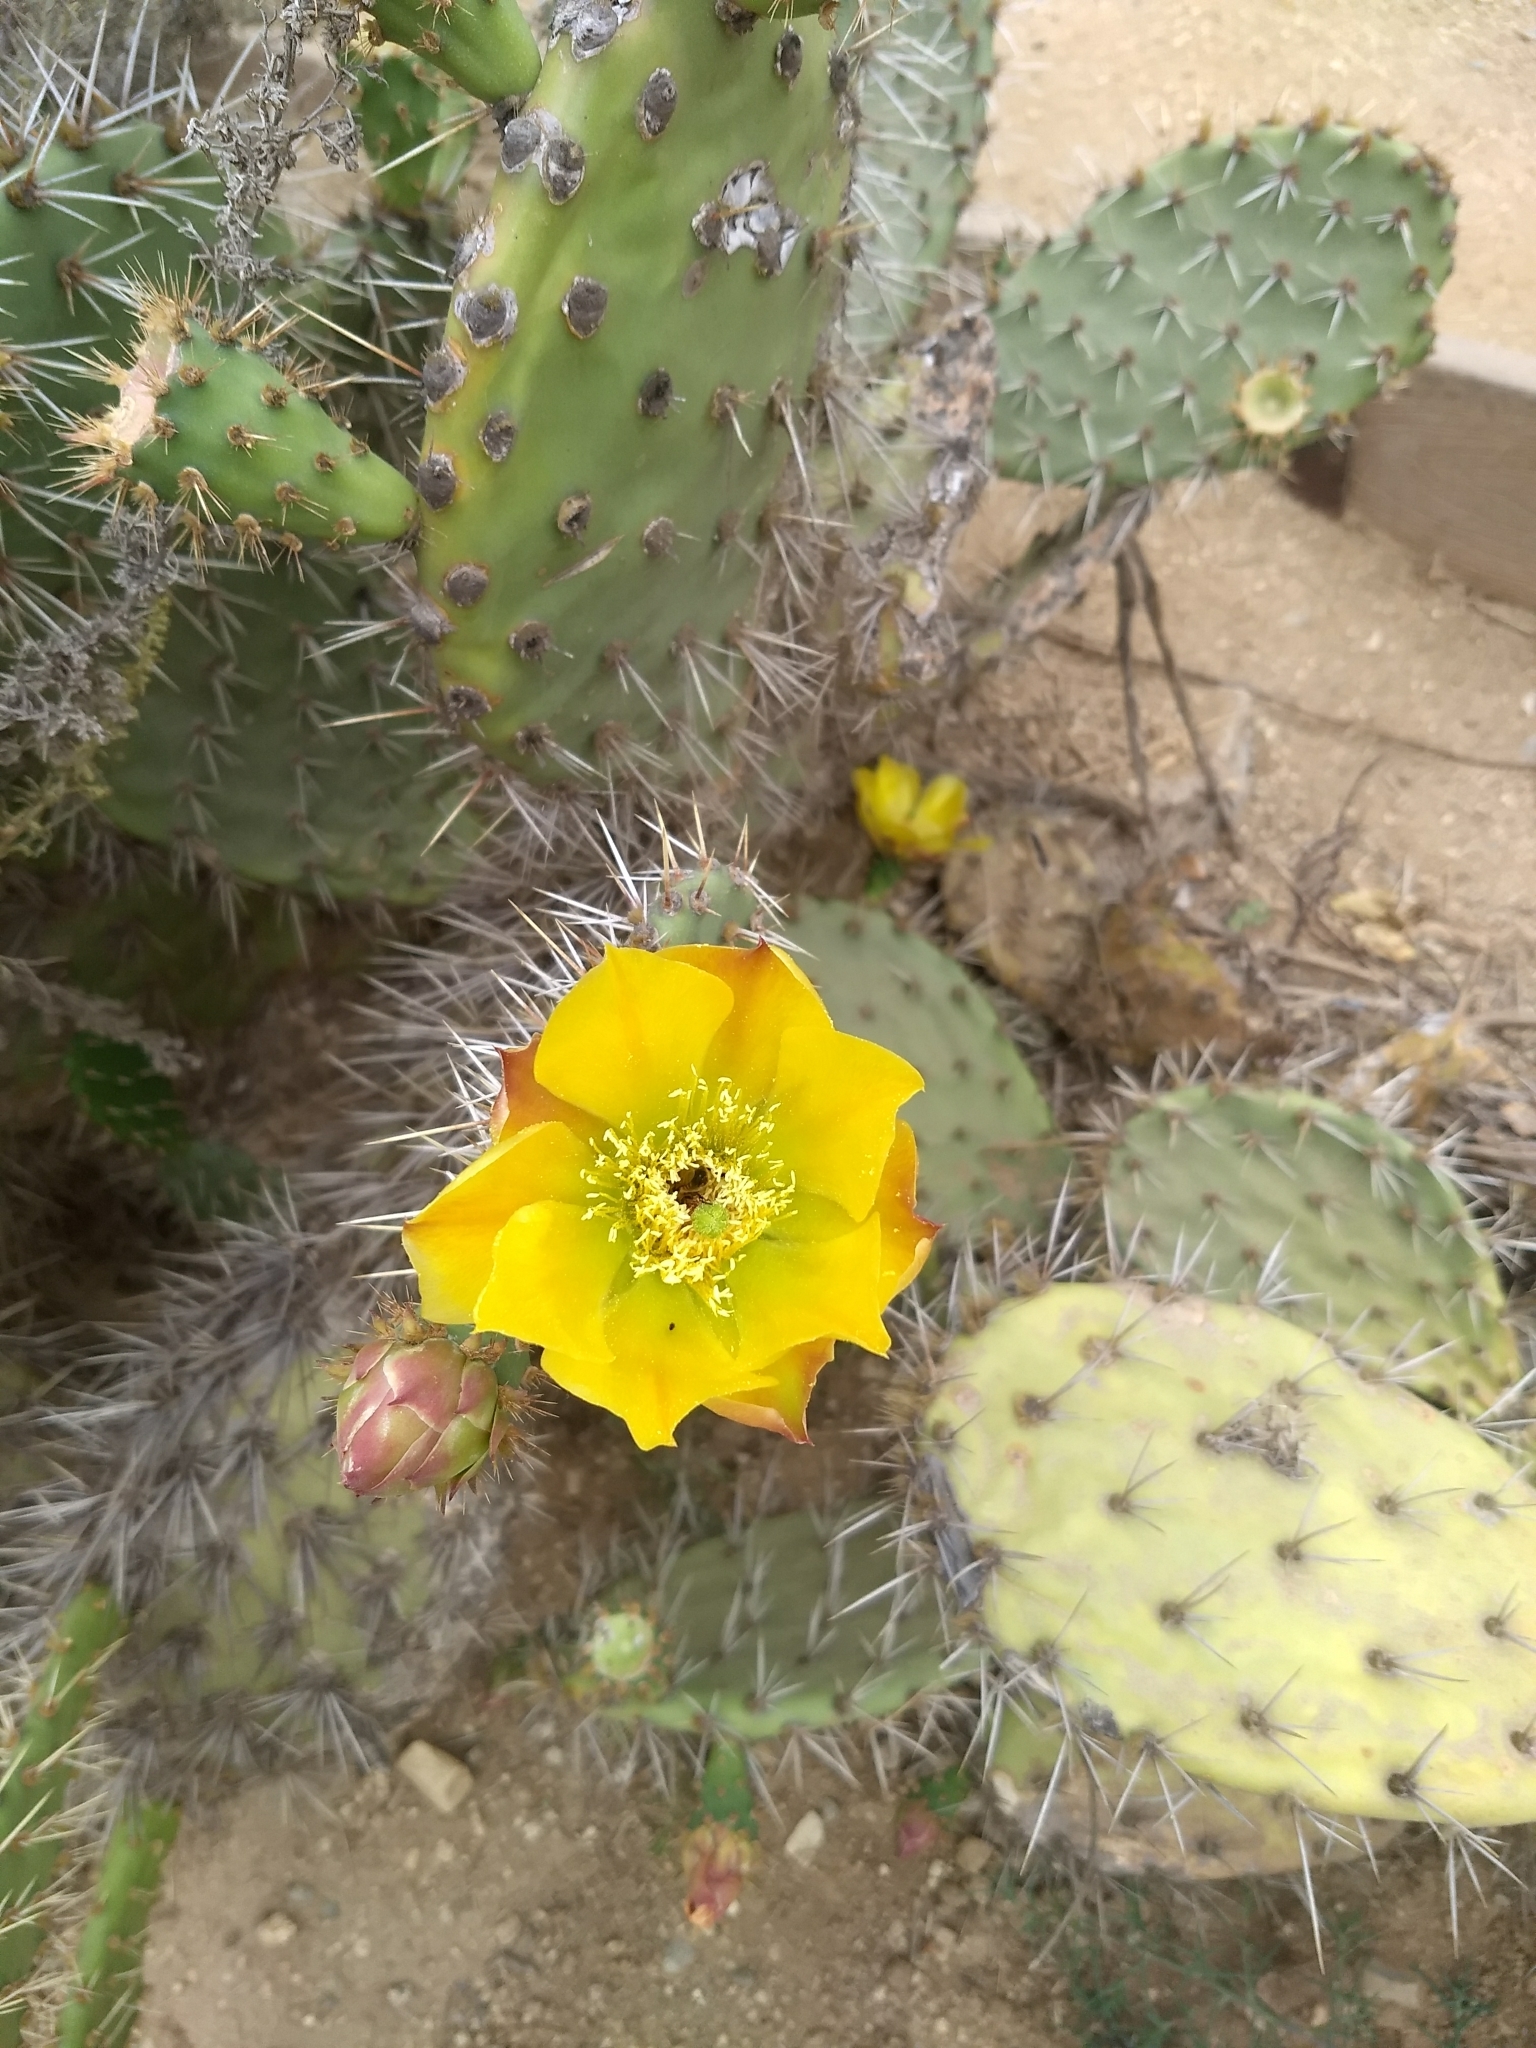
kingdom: Plantae
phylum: Tracheophyta
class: Magnoliopsida
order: Caryophyllales
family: Cactaceae
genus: Opuntia
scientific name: Opuntia littoralis
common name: Coastal prickly-pear
